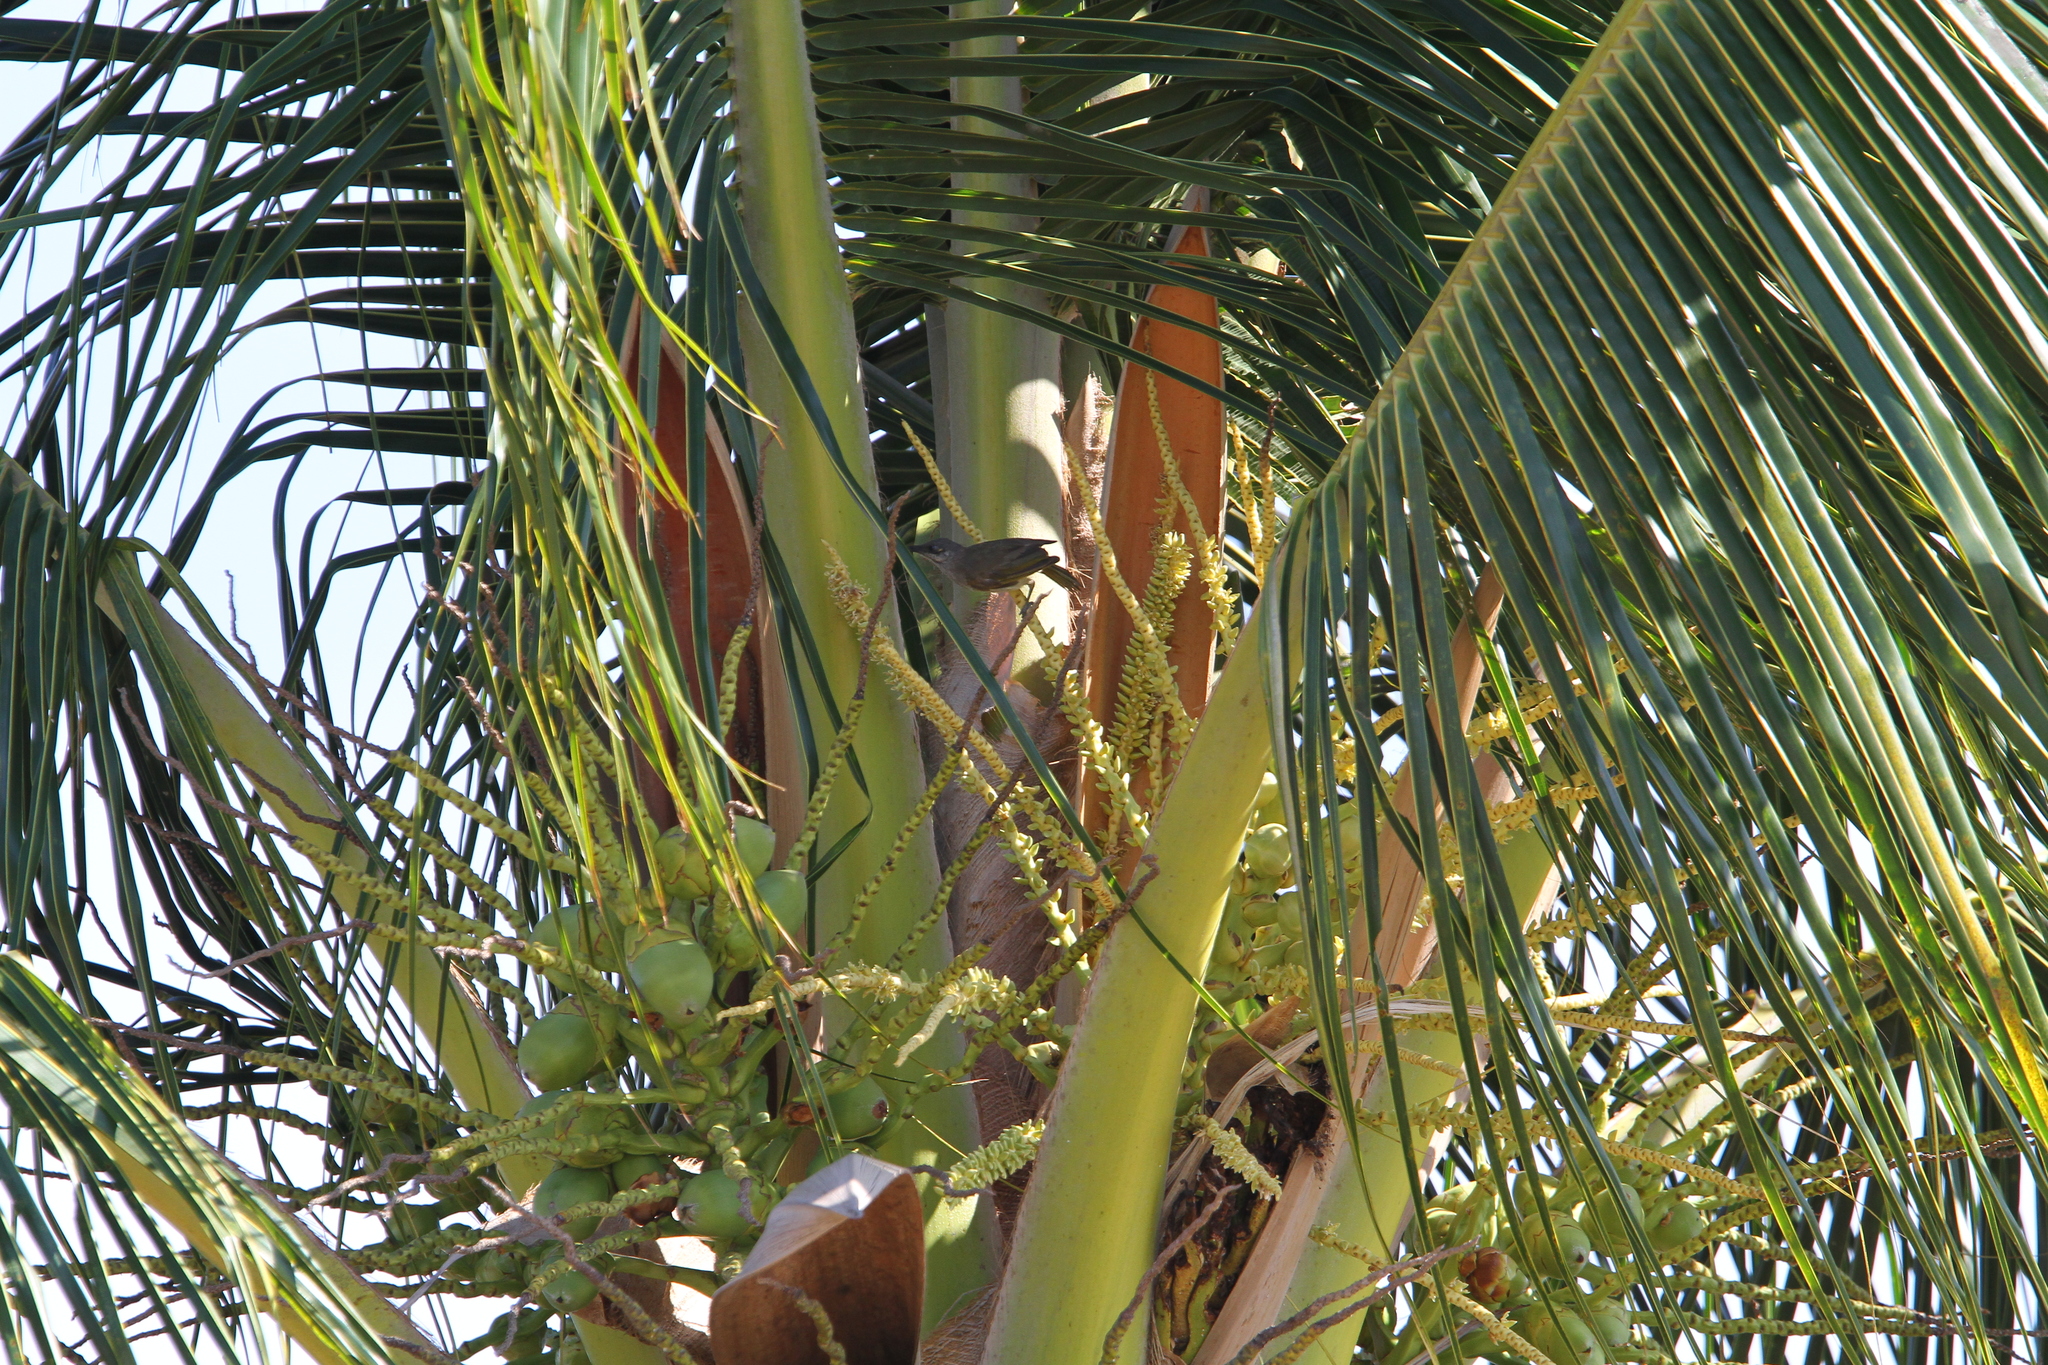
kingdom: Animalia
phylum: Chordata
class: Aves
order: Passeriformes
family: Meliphagidae
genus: Lichmera
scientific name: Lichmera indistincta
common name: Brown honeyeater
